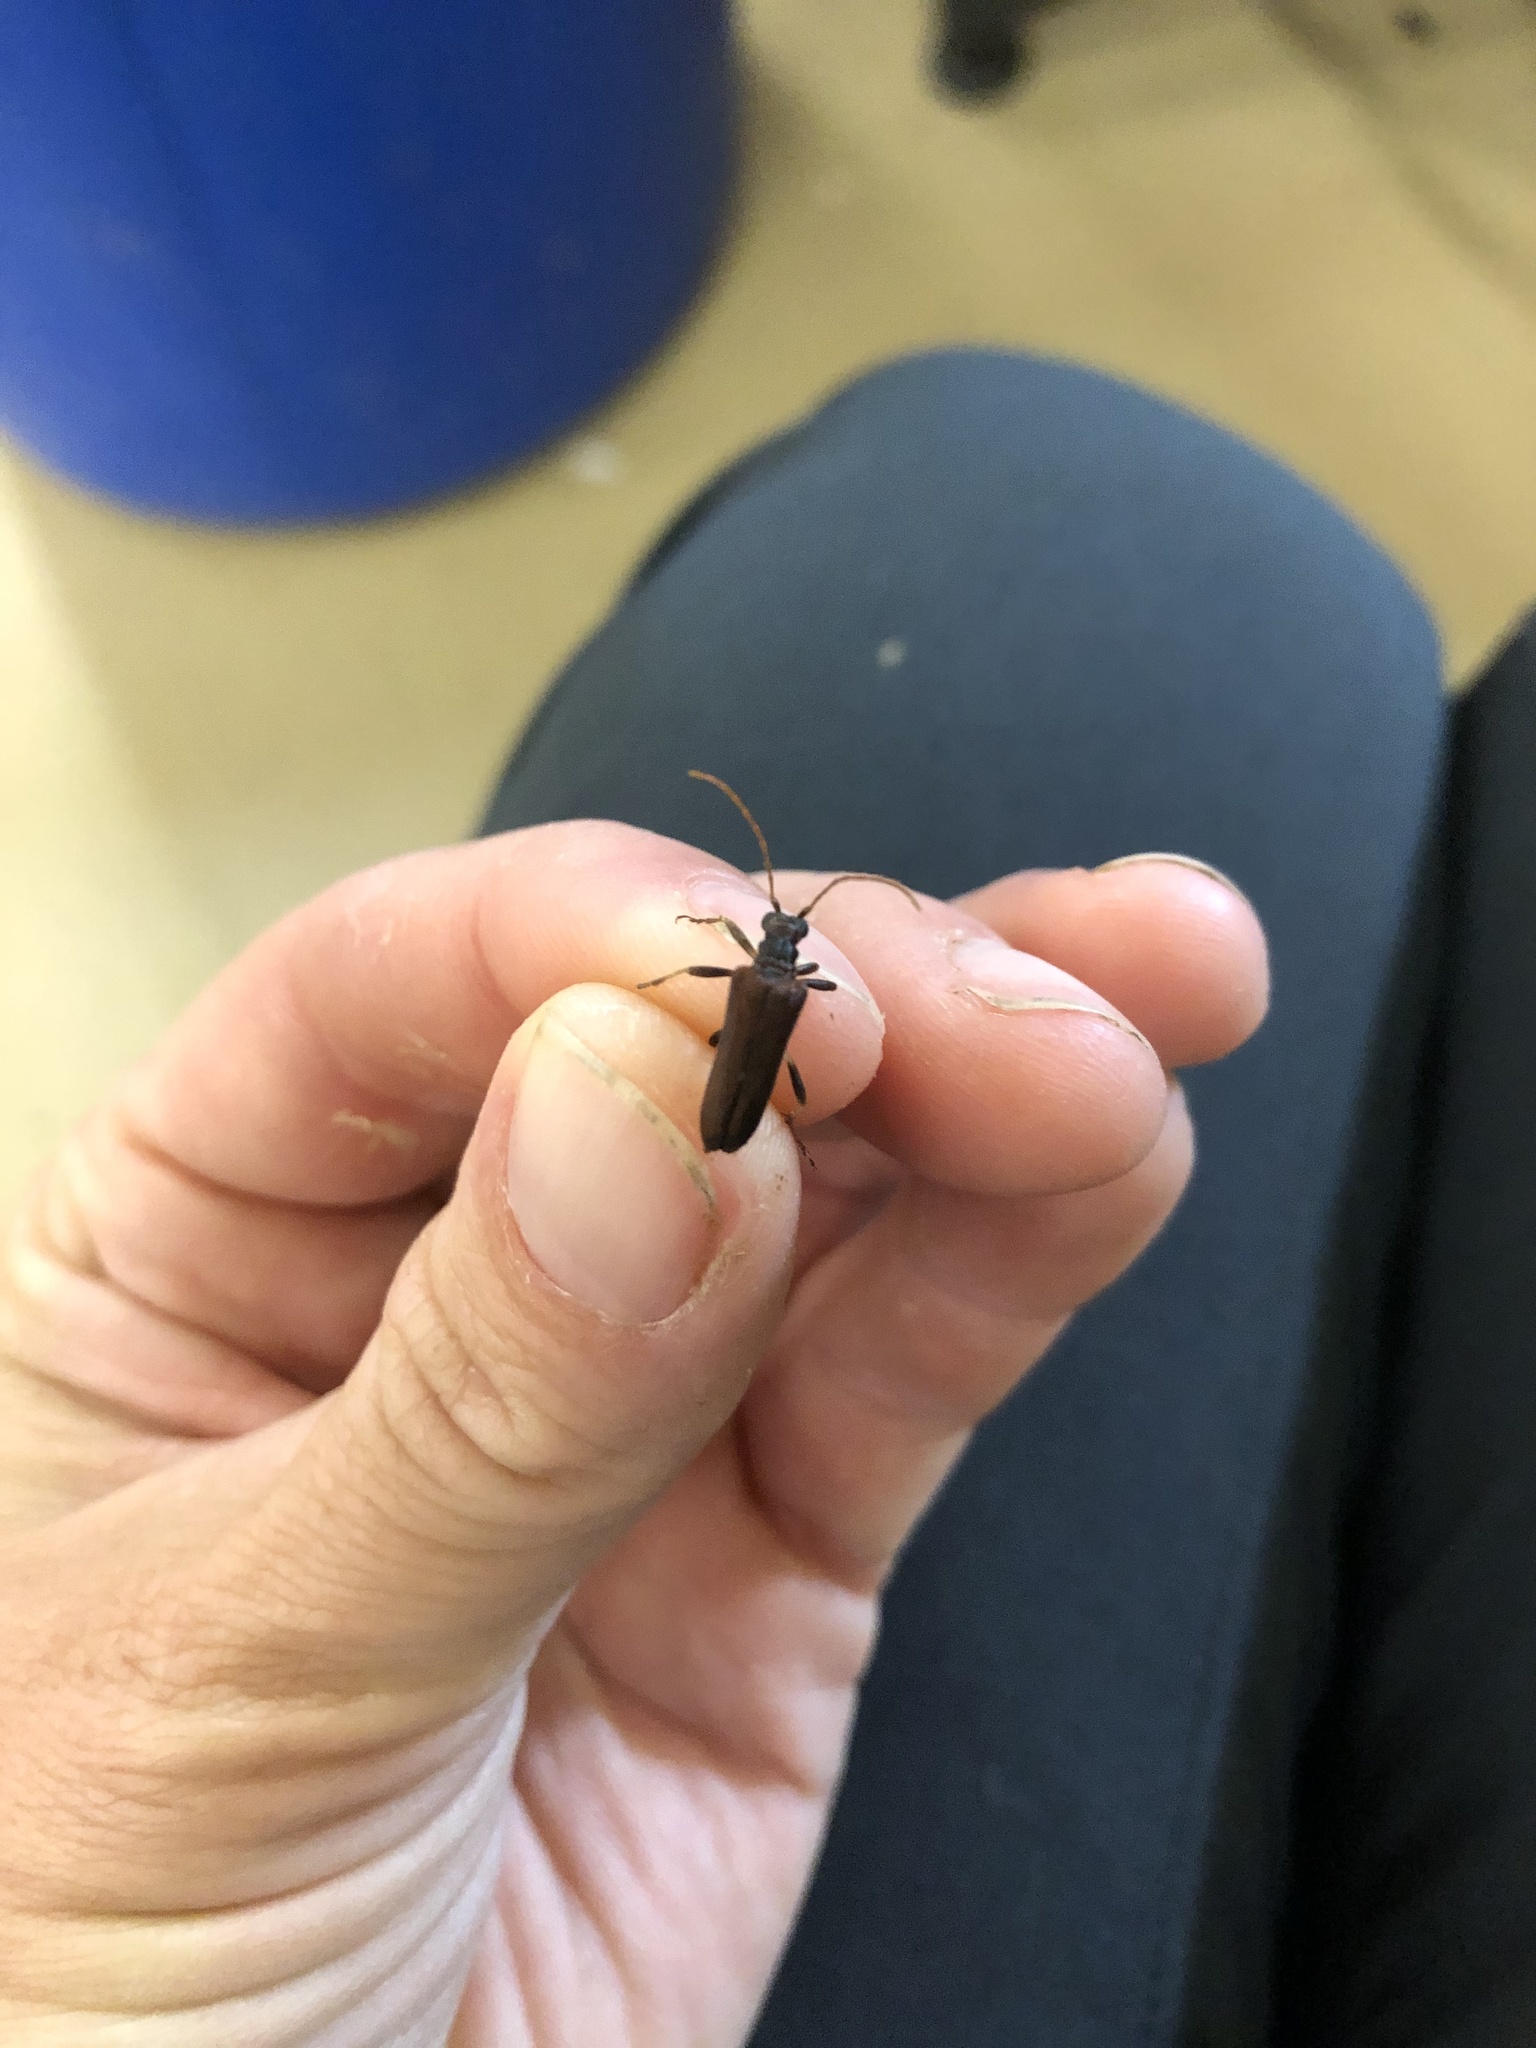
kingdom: Animalia
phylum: Arthropoda
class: Insecta
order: Coleoptera
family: Cerambycidae
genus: Stenocorus
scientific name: Stenocorus cinnamopterus
